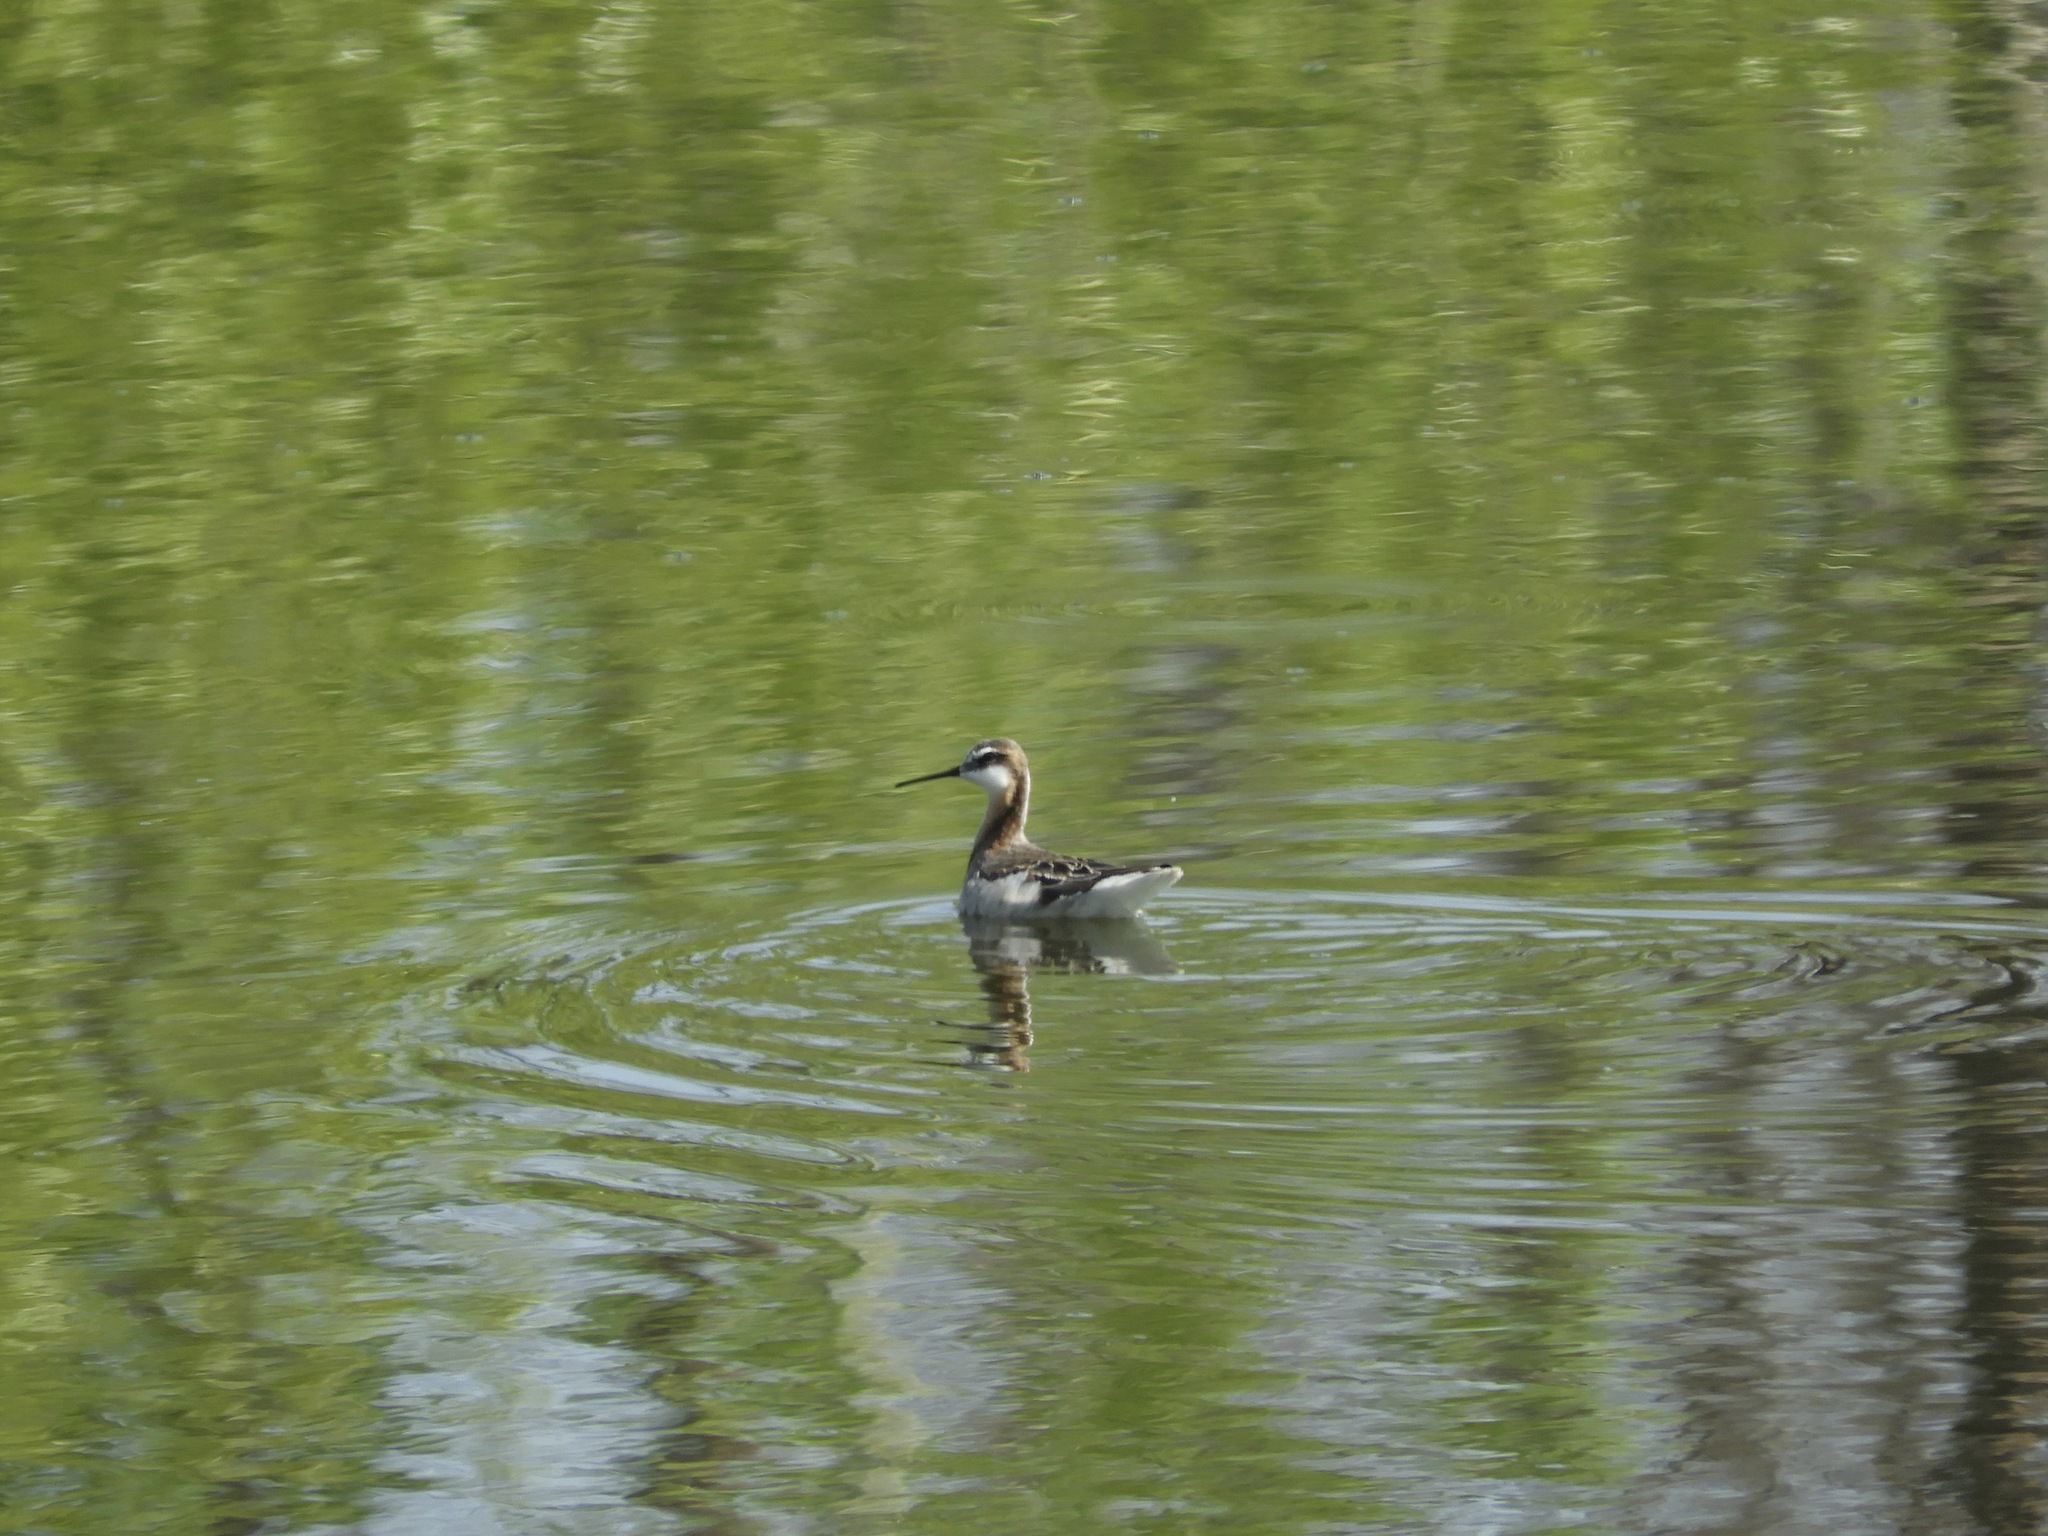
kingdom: Animalia
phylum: Chordata
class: Aves
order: Charadriiformes
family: Scolopacidae
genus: Phalaropus
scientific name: Phalaropus tricolor
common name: Wilson's phalarope
